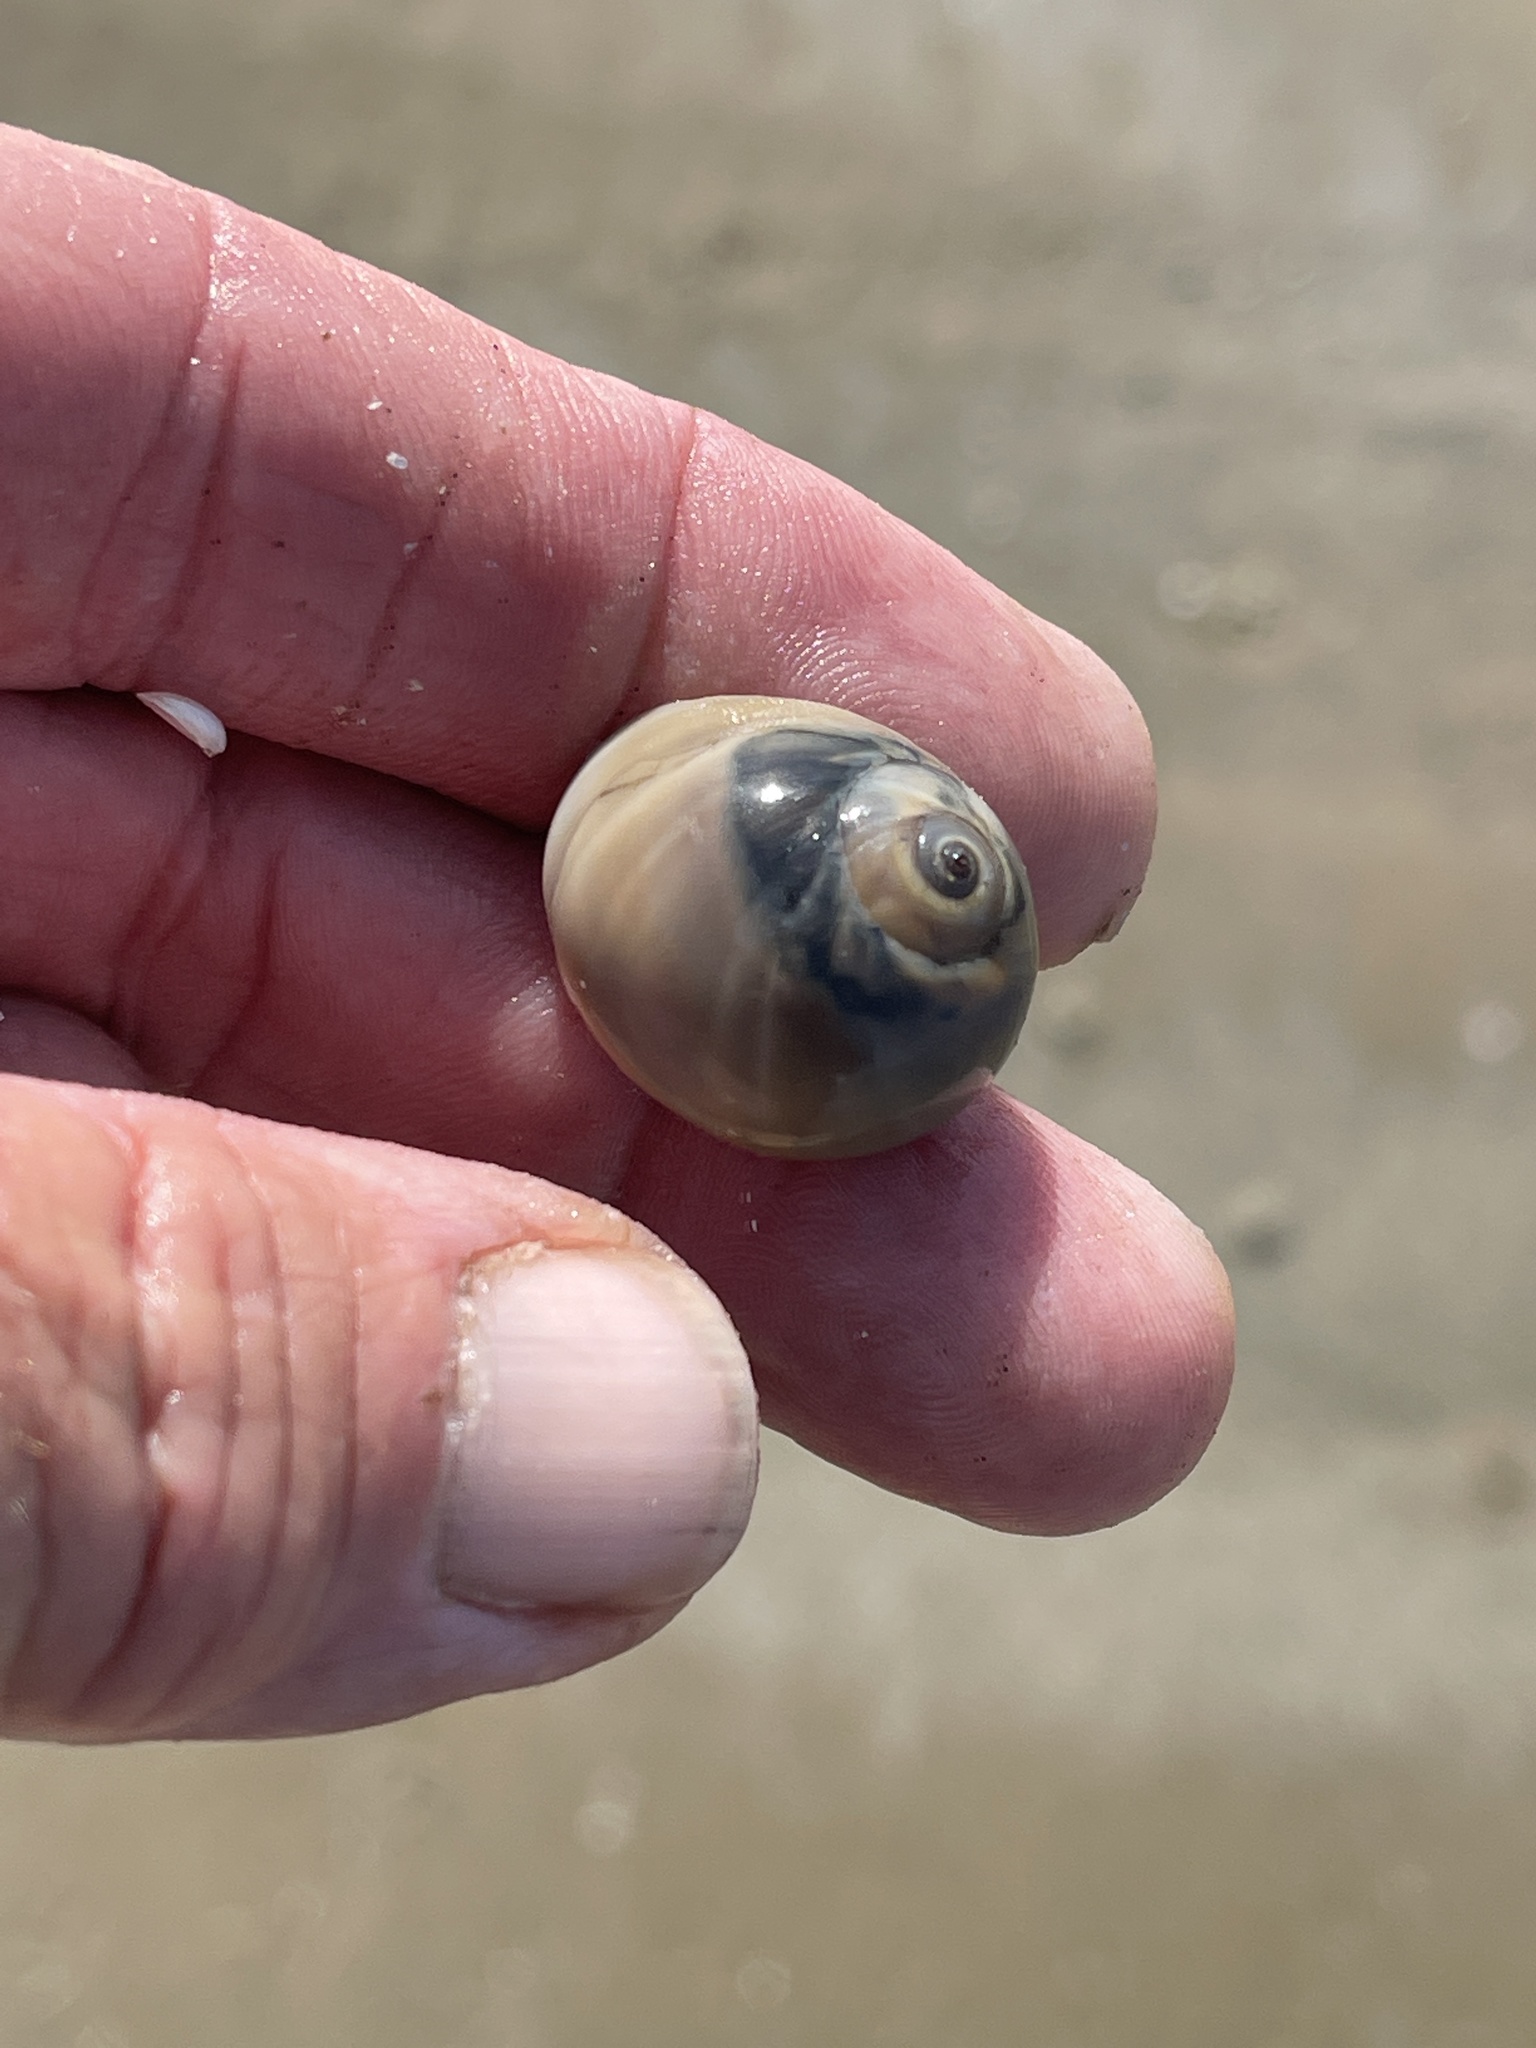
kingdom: Animalia
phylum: Mollusca
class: Gastropoda
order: Littorinimorpha
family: Naticidae
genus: Neverita
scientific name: Neverita duplicata
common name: Lobed moonsnail
